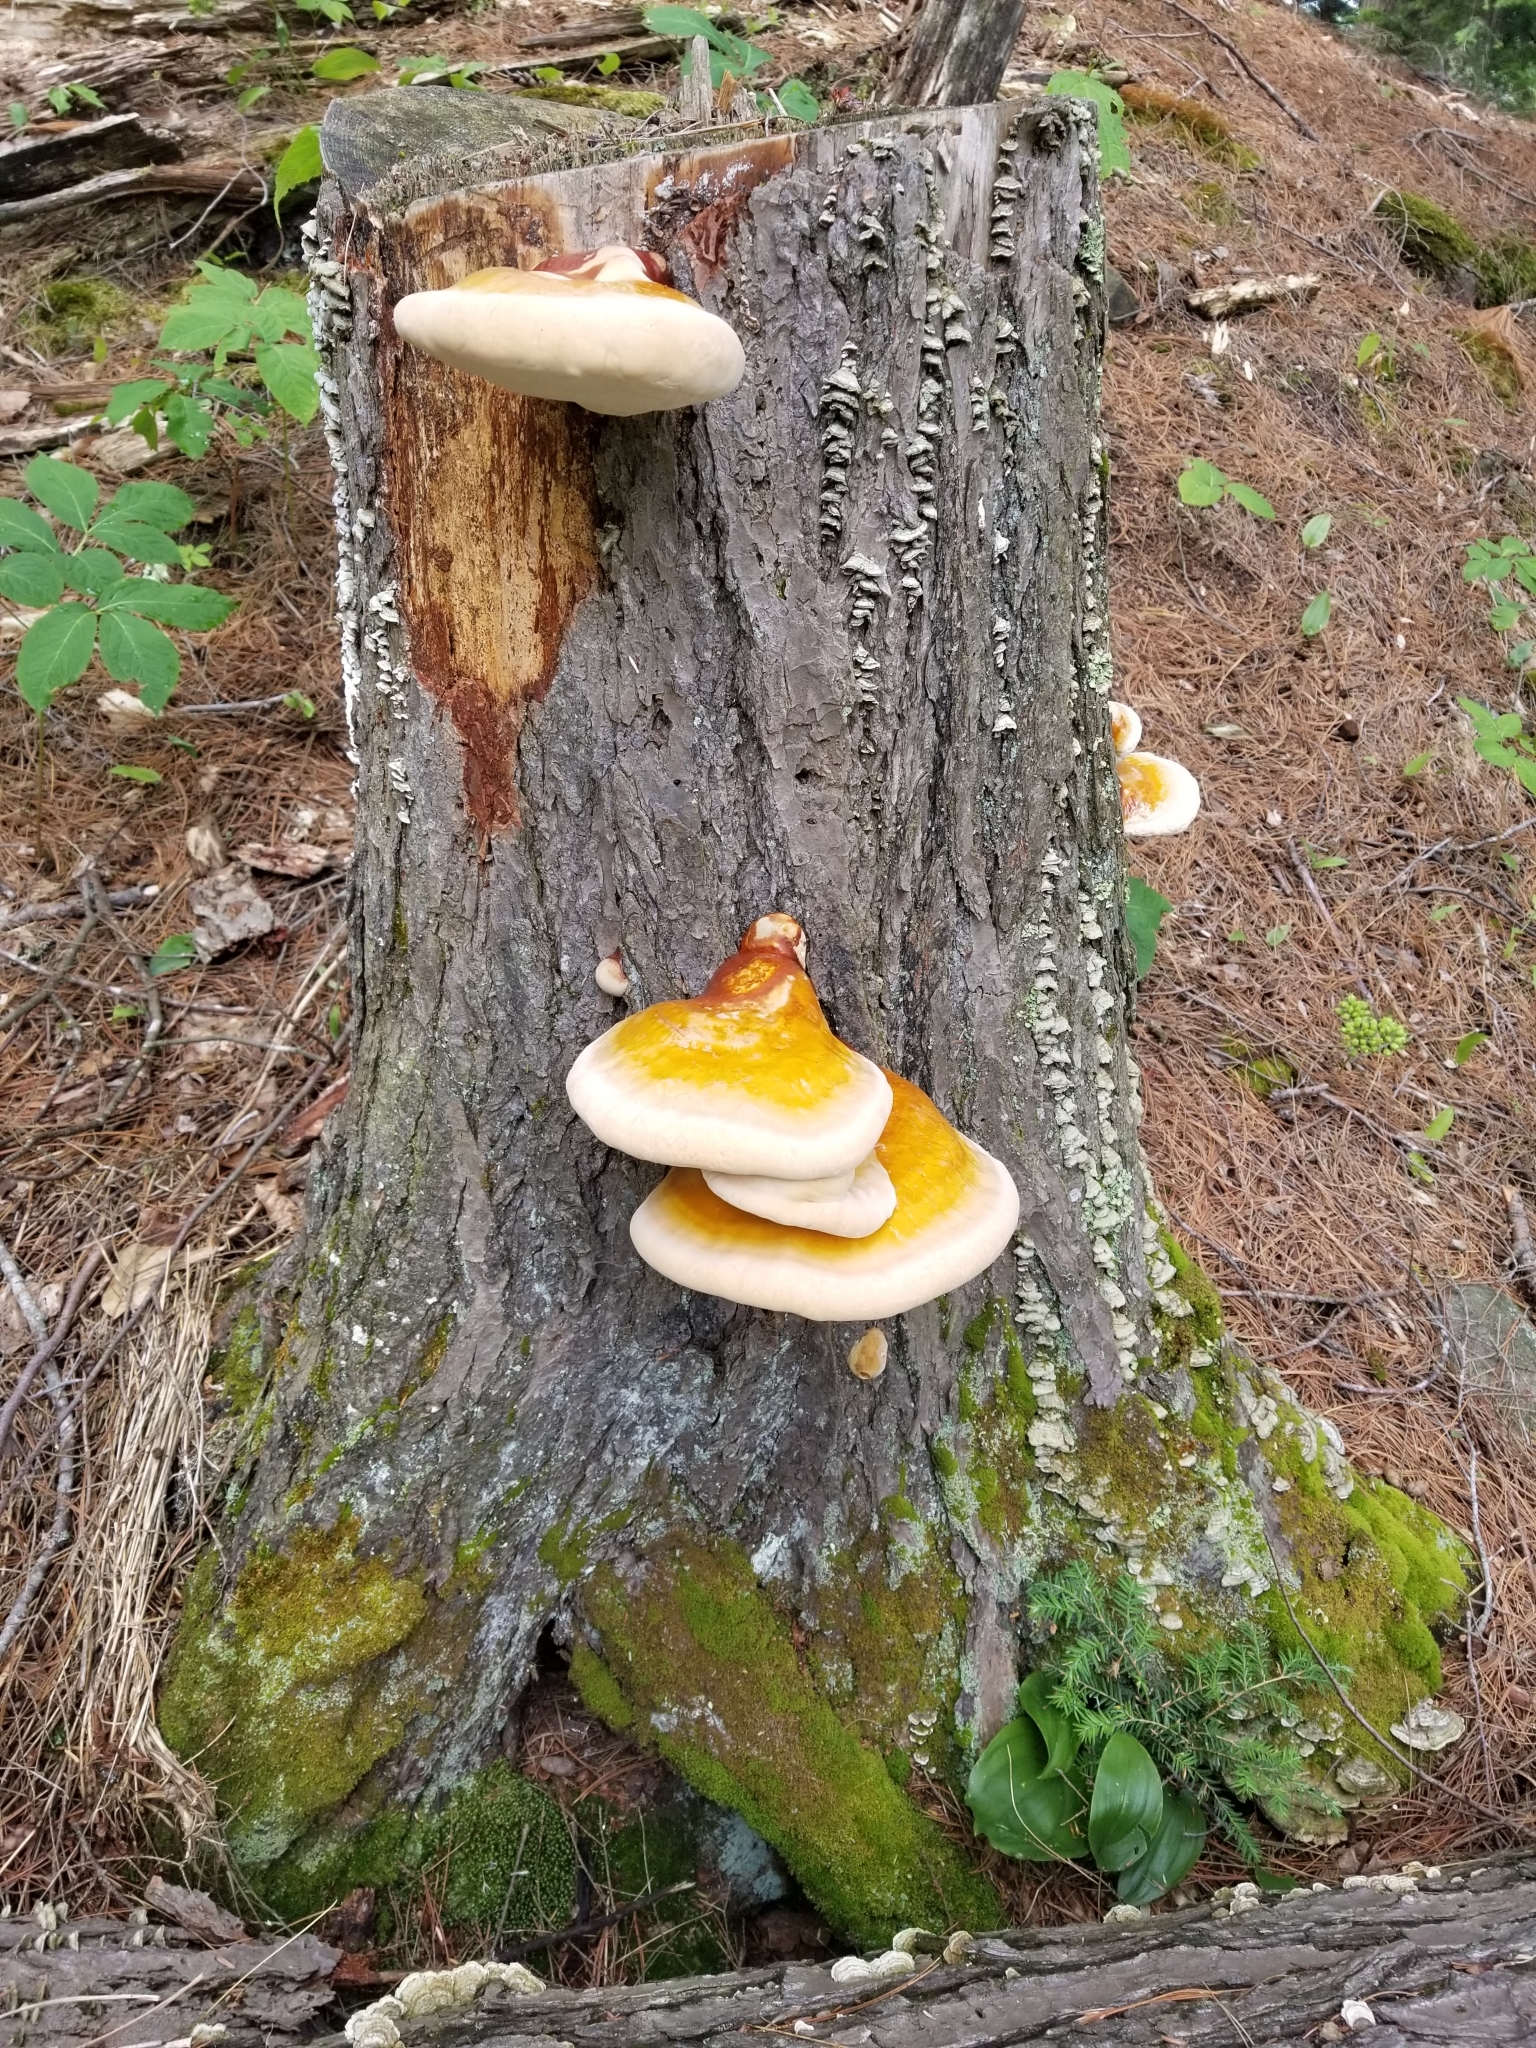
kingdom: Fungi
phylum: Basidiomycota
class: Agaricomycetes
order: Polyporales
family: Polyporaceae
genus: Ganoderma
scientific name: Ganoderma tsugae
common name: Hemlock varnish shelf
